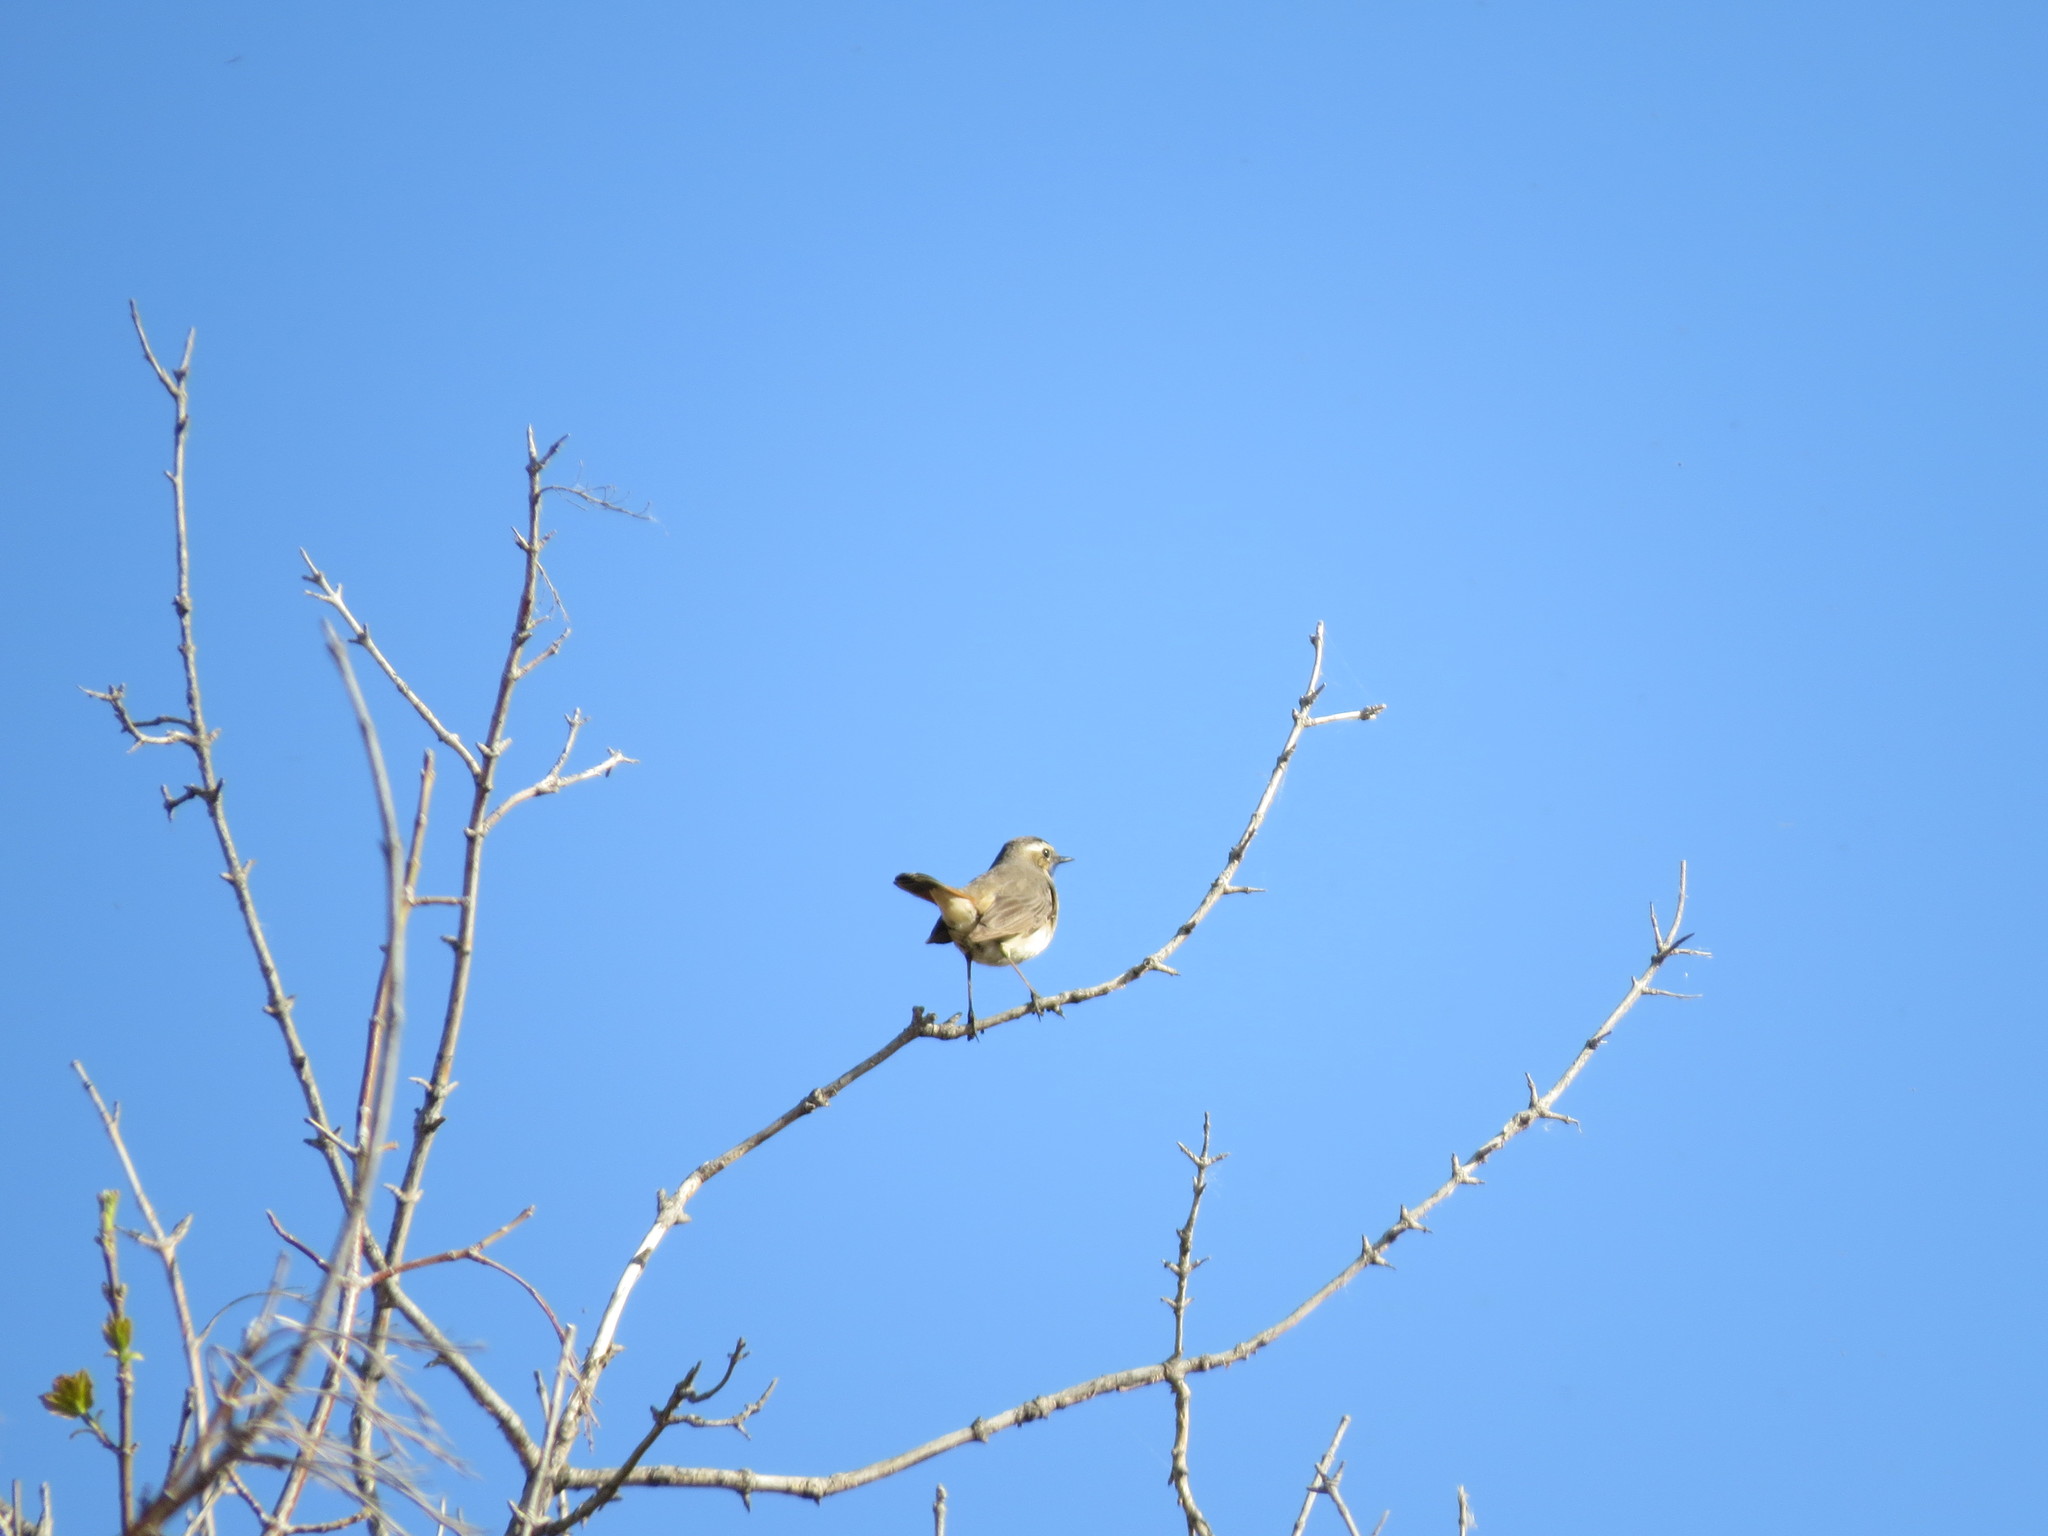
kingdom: Animalia
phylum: Chordata
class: Aves
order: Passeriformes
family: Muscicapidae
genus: Luscinia
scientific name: Luscinia svecica
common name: Bluethroat
